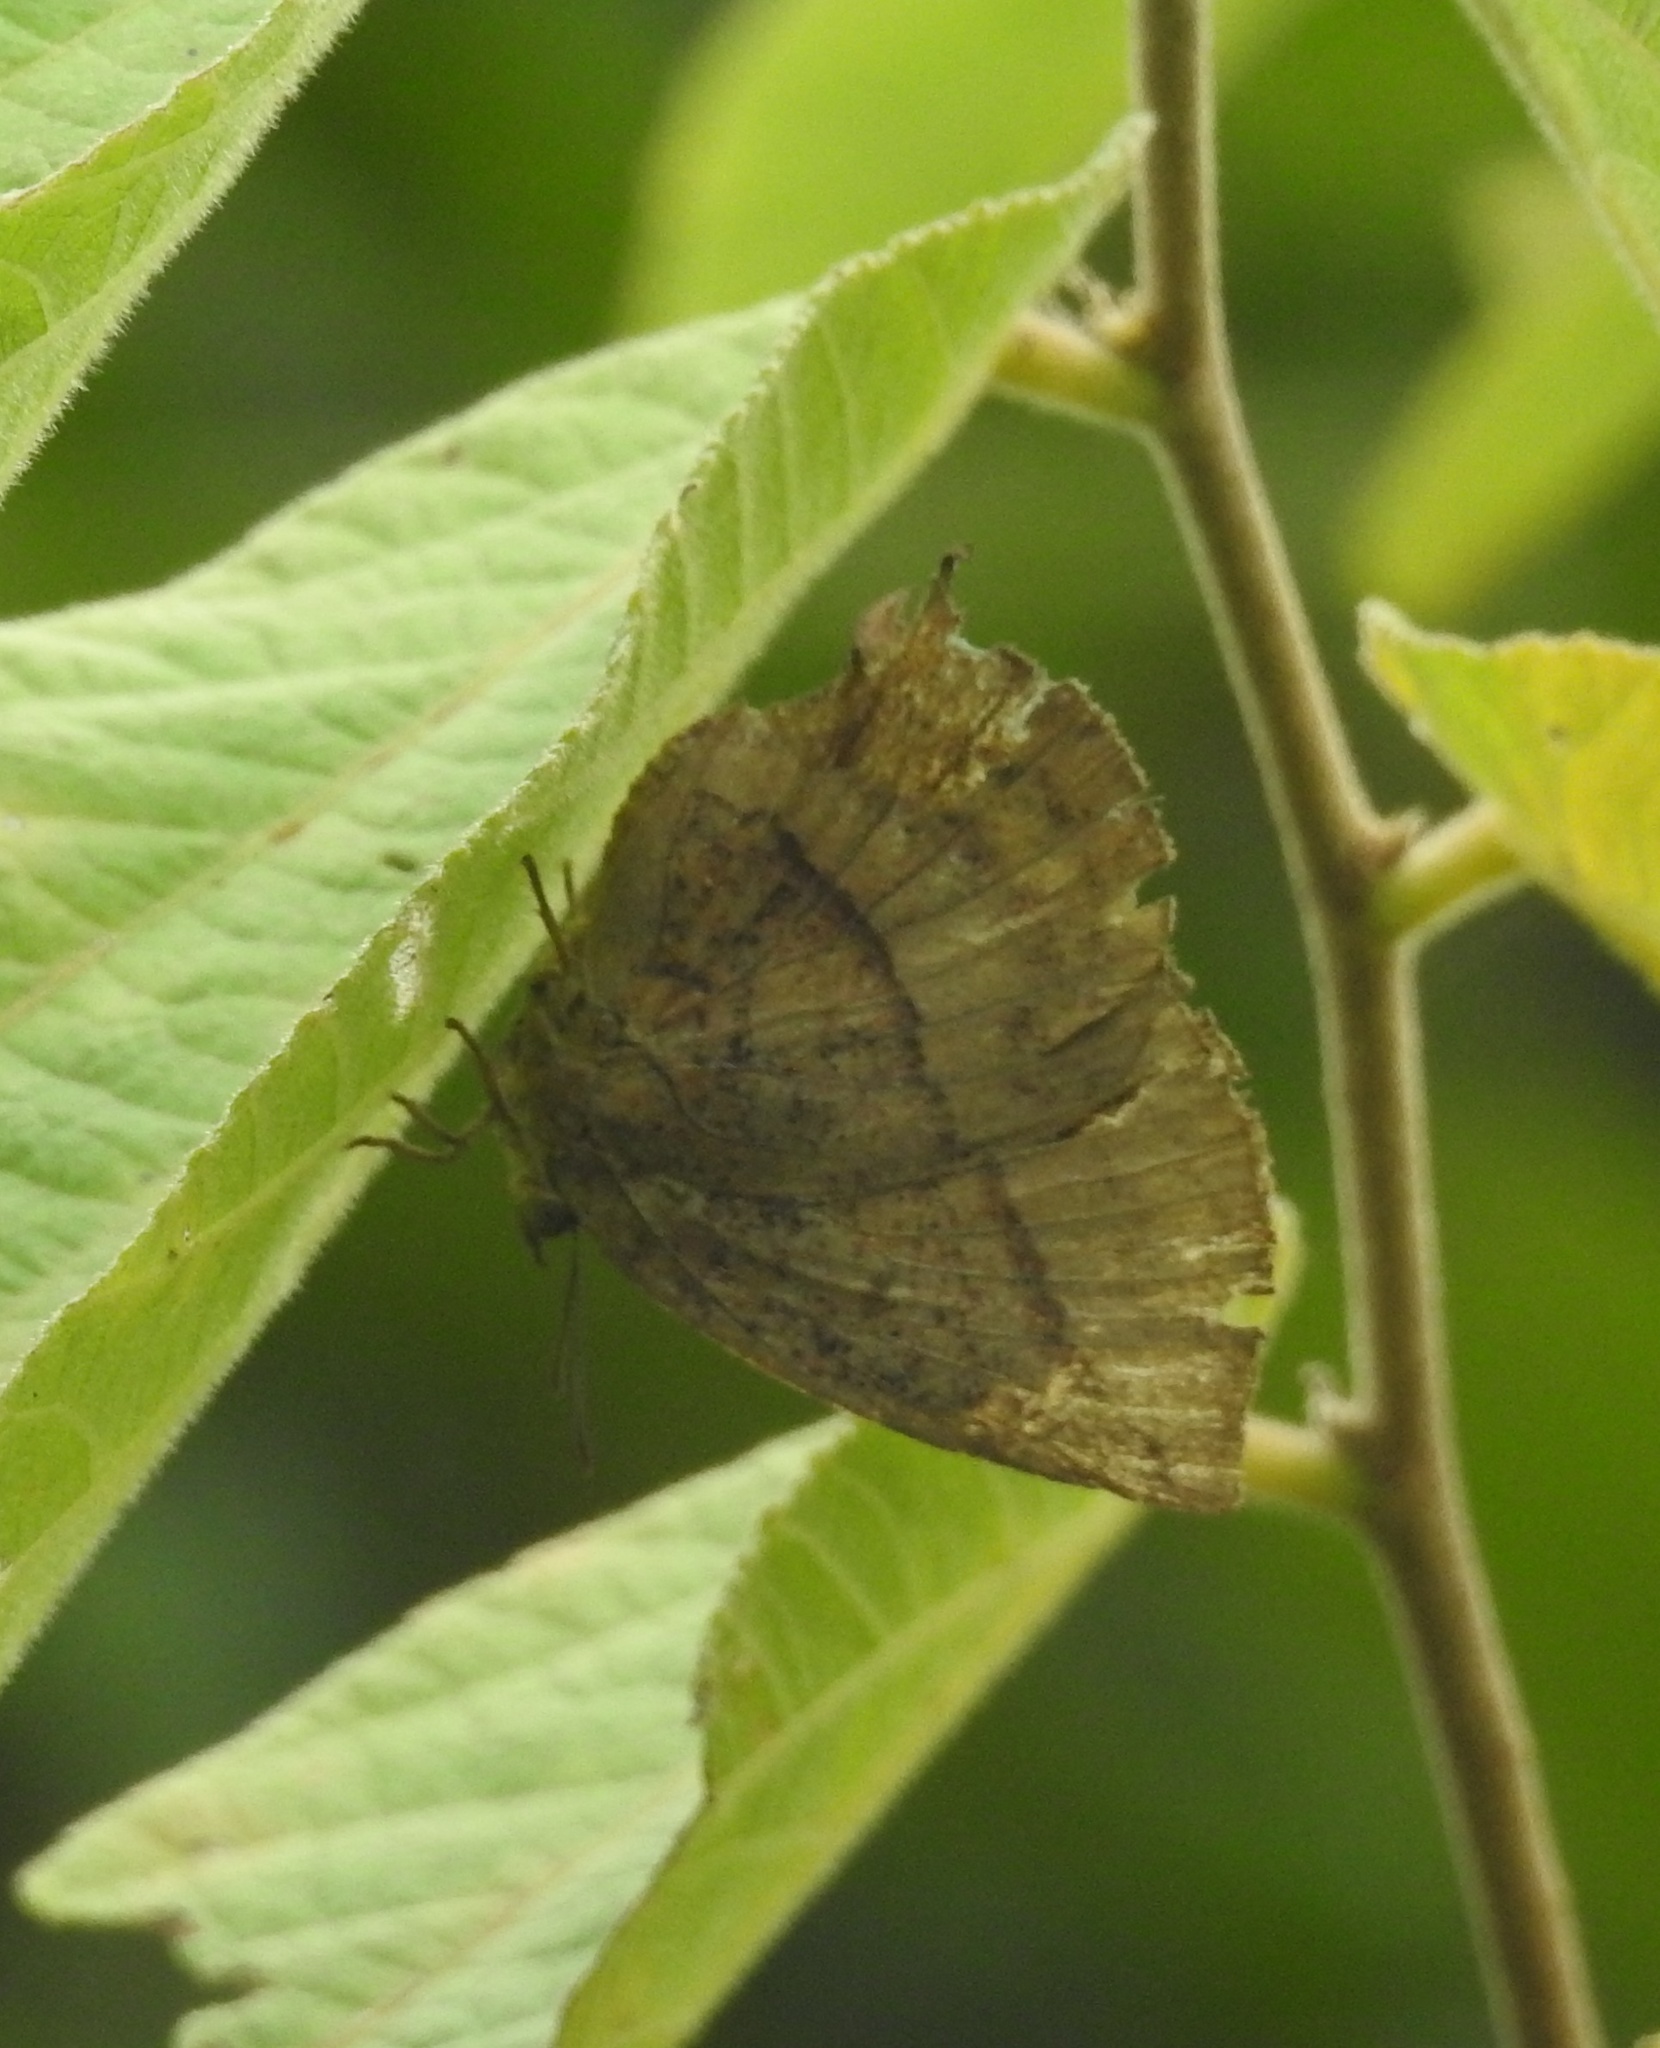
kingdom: Animalia
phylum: Arthropoda
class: Insecta
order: Lepidoptera
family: Lycaenidae
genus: Amblypodia
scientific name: Amblypodia anita
